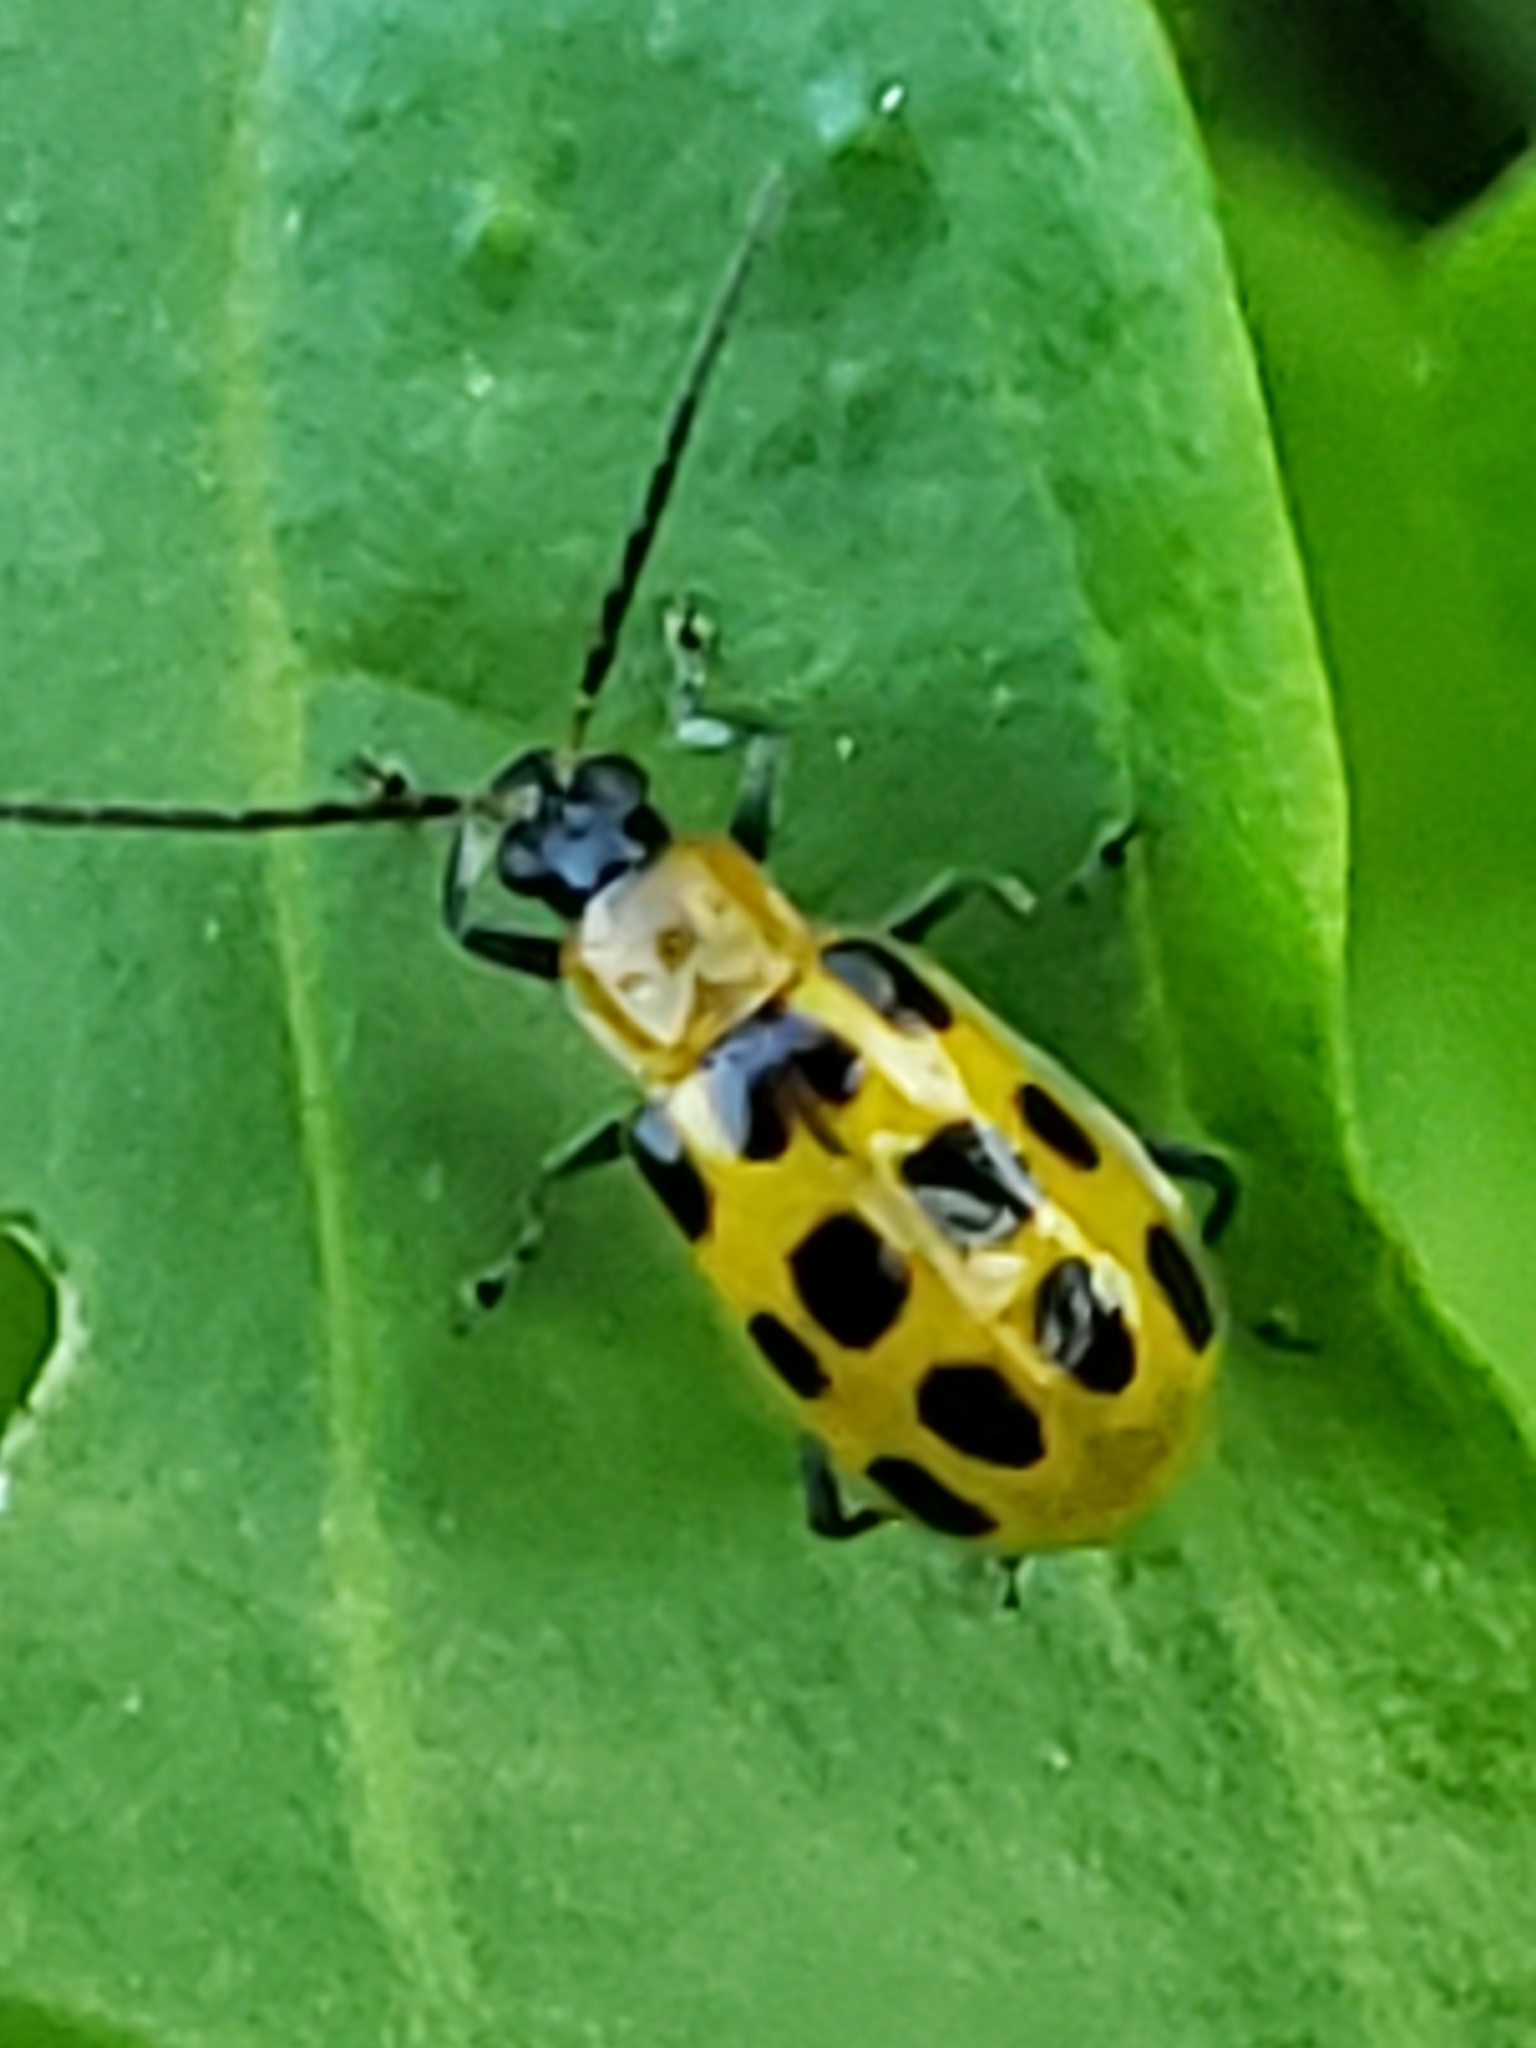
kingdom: Animalia
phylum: Arthropoda
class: Insecta
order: Coleoptera
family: Chrysomelidae
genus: Diabrotica
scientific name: Diabrotica undecimpunctata
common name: Spotted cucumber beetle
